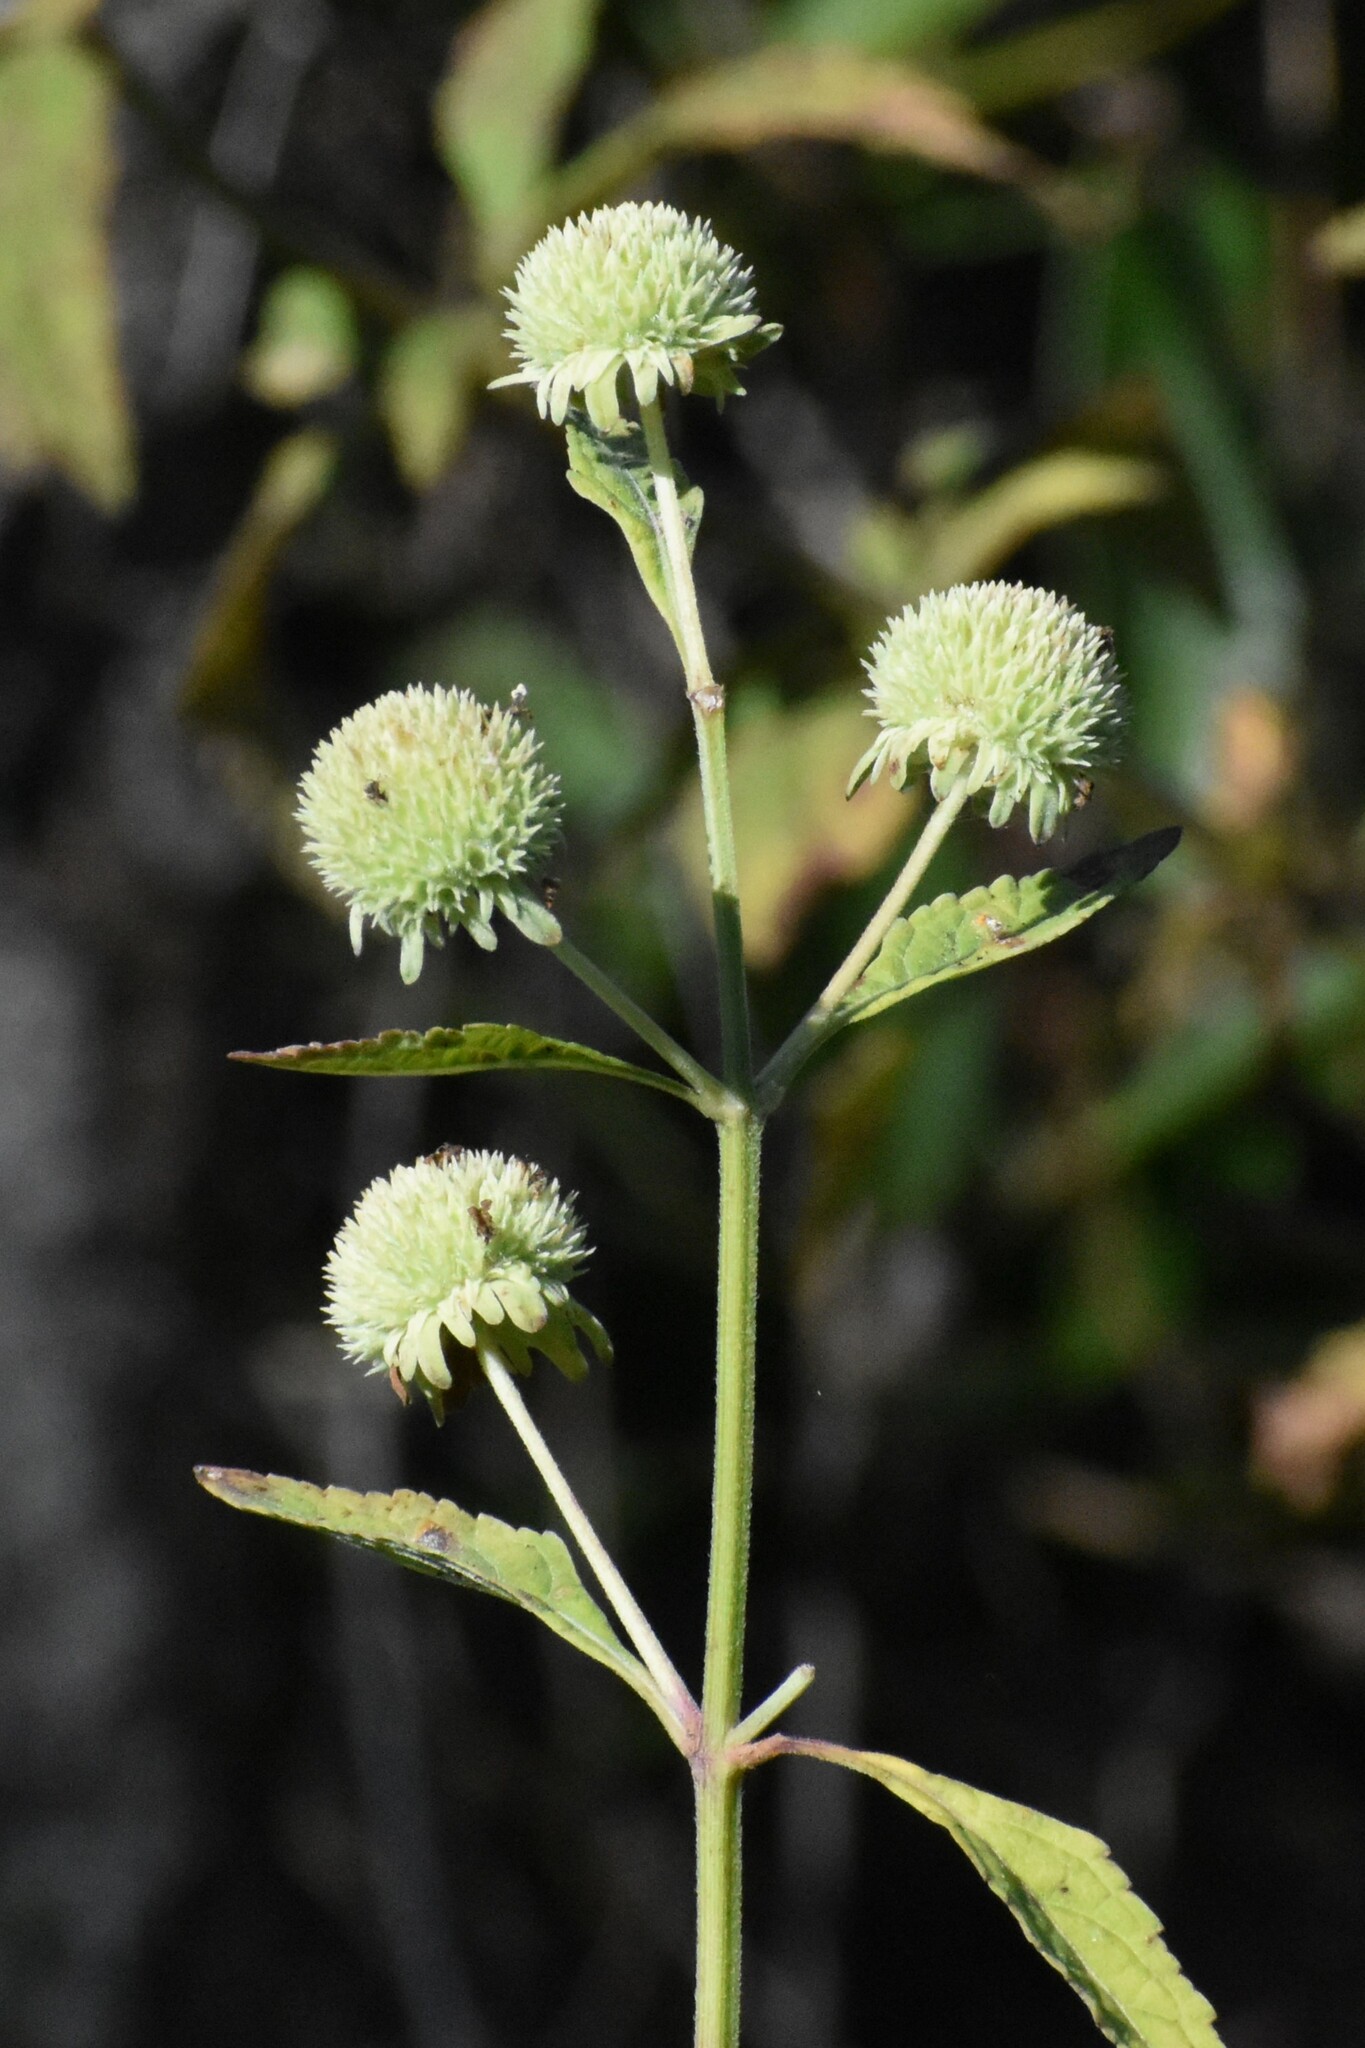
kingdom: Plantae
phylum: Tracheophyta
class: Magnoliopsida
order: Lamiales
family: Lamiaceae
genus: Hyptis
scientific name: Hyptis alata
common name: Cluster bush-mint
